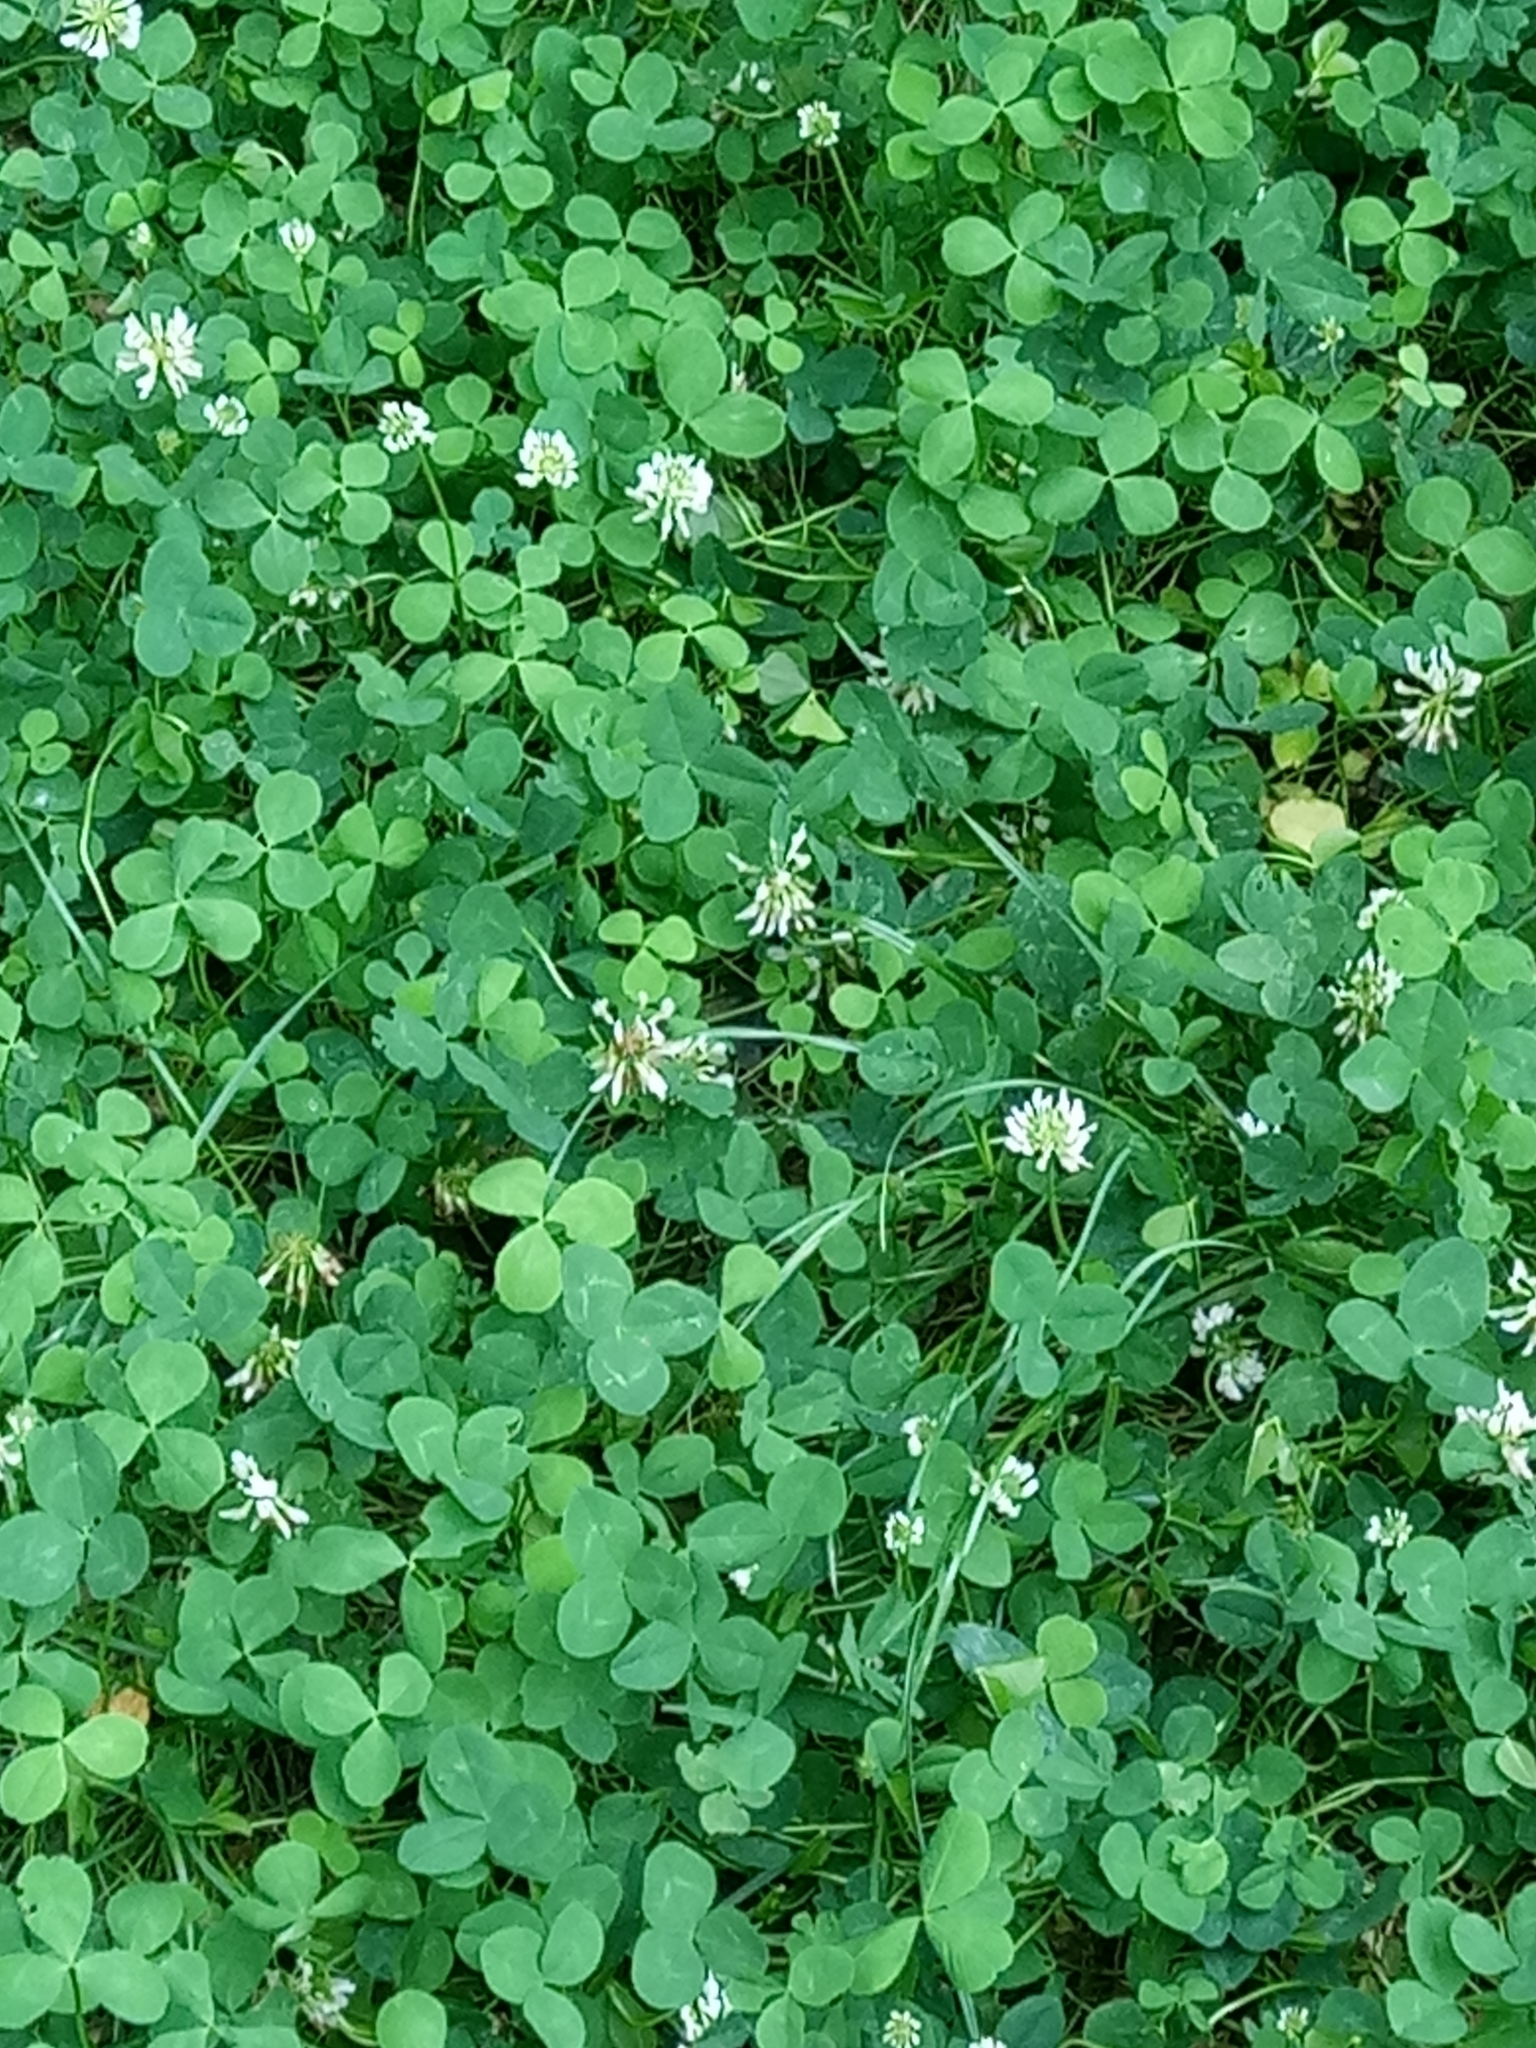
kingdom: Plantae
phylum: Tracheophyta
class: Magnoliopsida
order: Fabales
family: Fabaceae
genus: Trifolium
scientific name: Trifolium repens
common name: White clover
